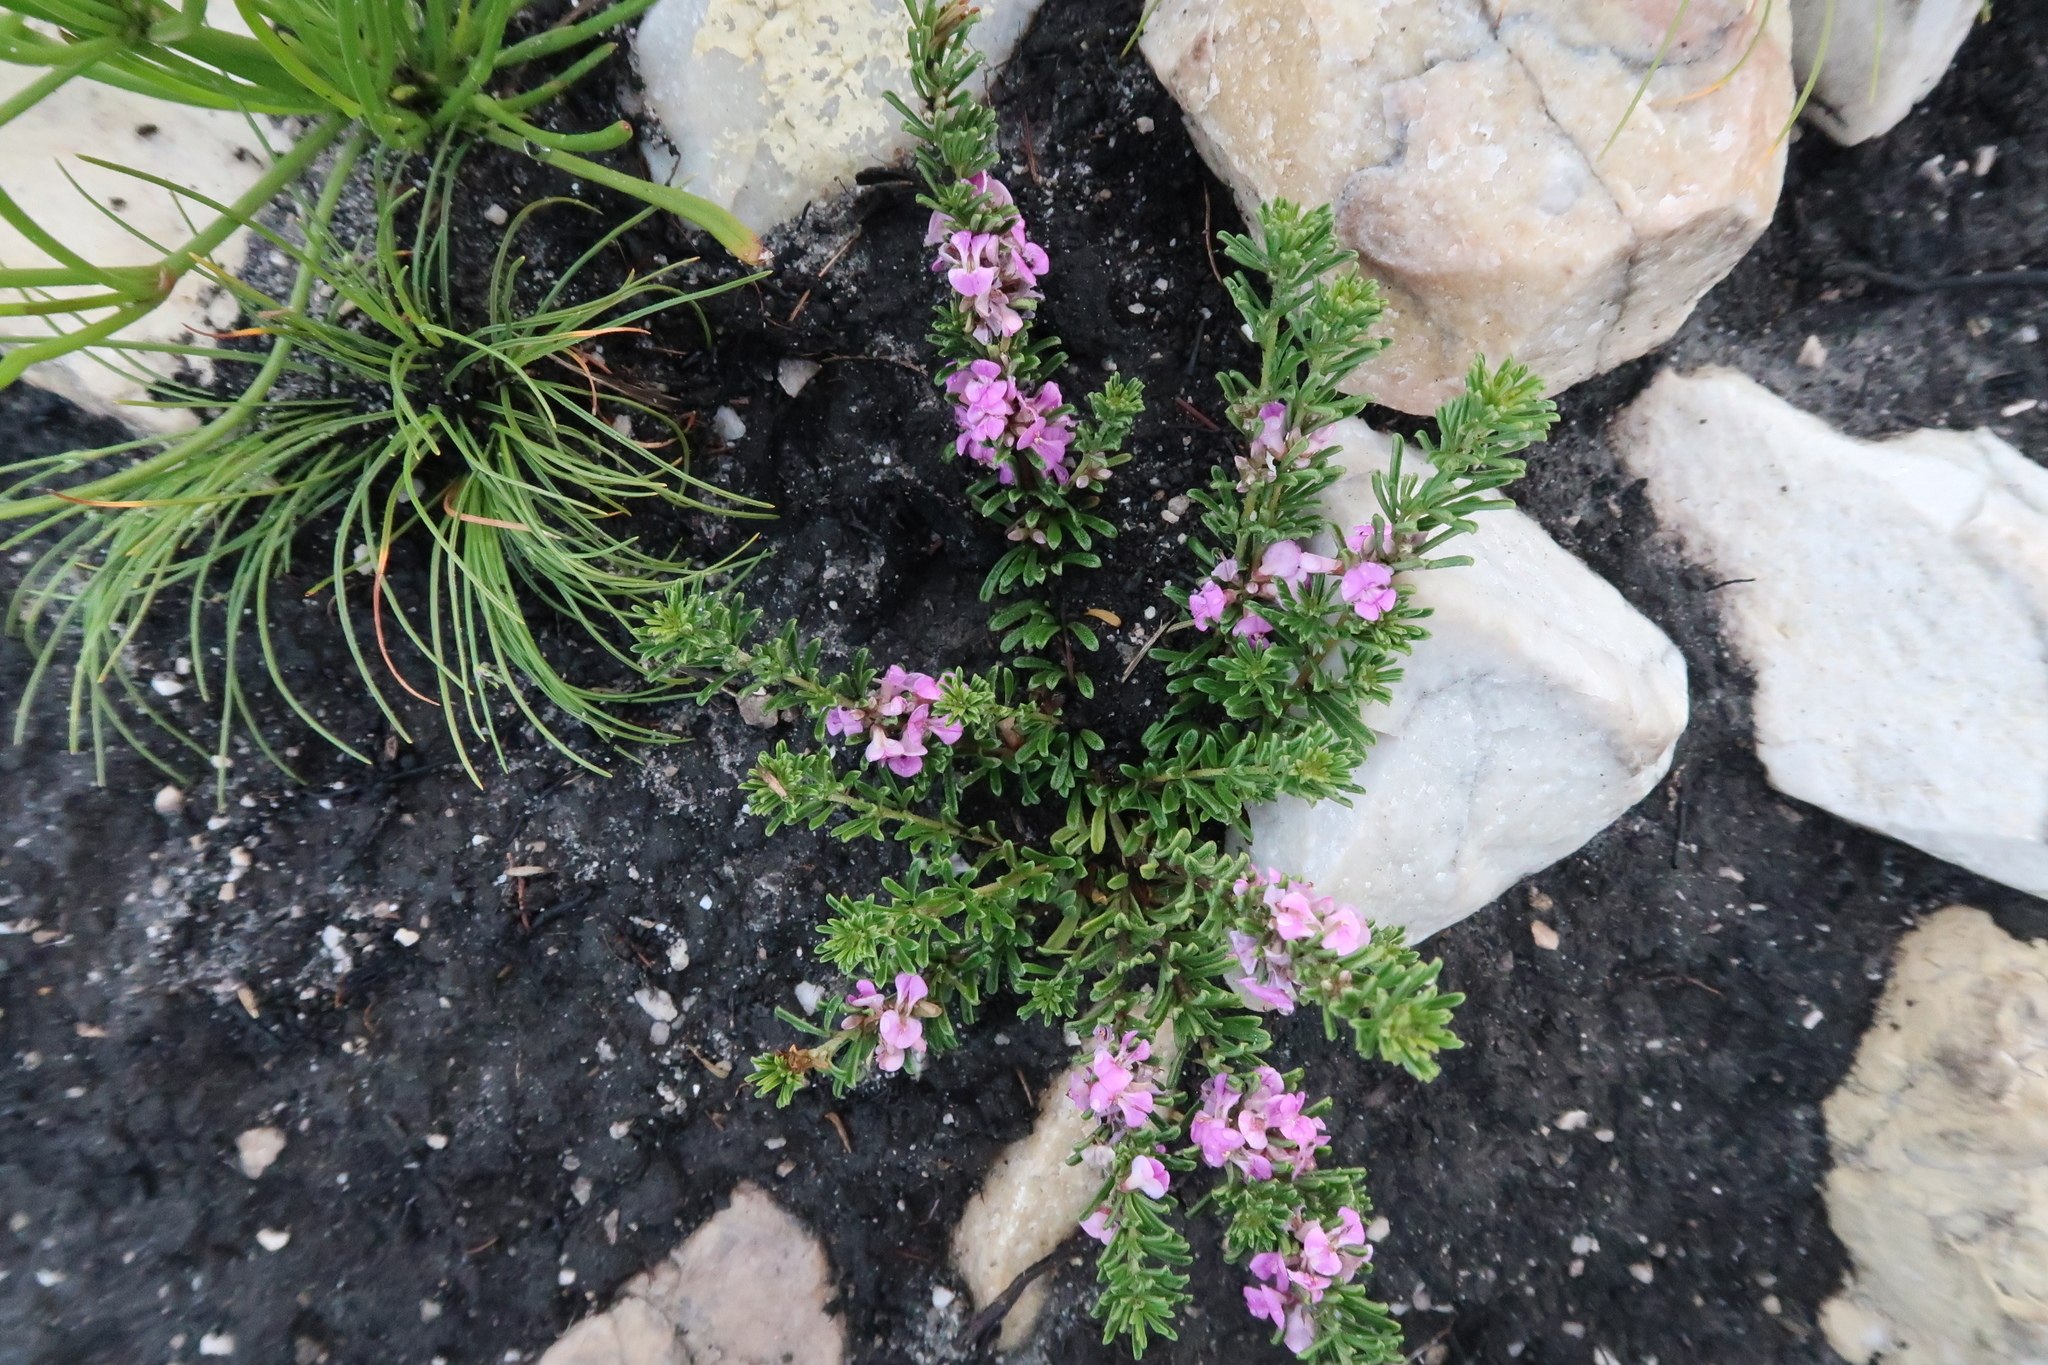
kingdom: Plantae
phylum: Tracheophyta
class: Magnoliopsida
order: Fabales
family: Fabaceae
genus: Indigofera
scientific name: Indigofera flabellata
